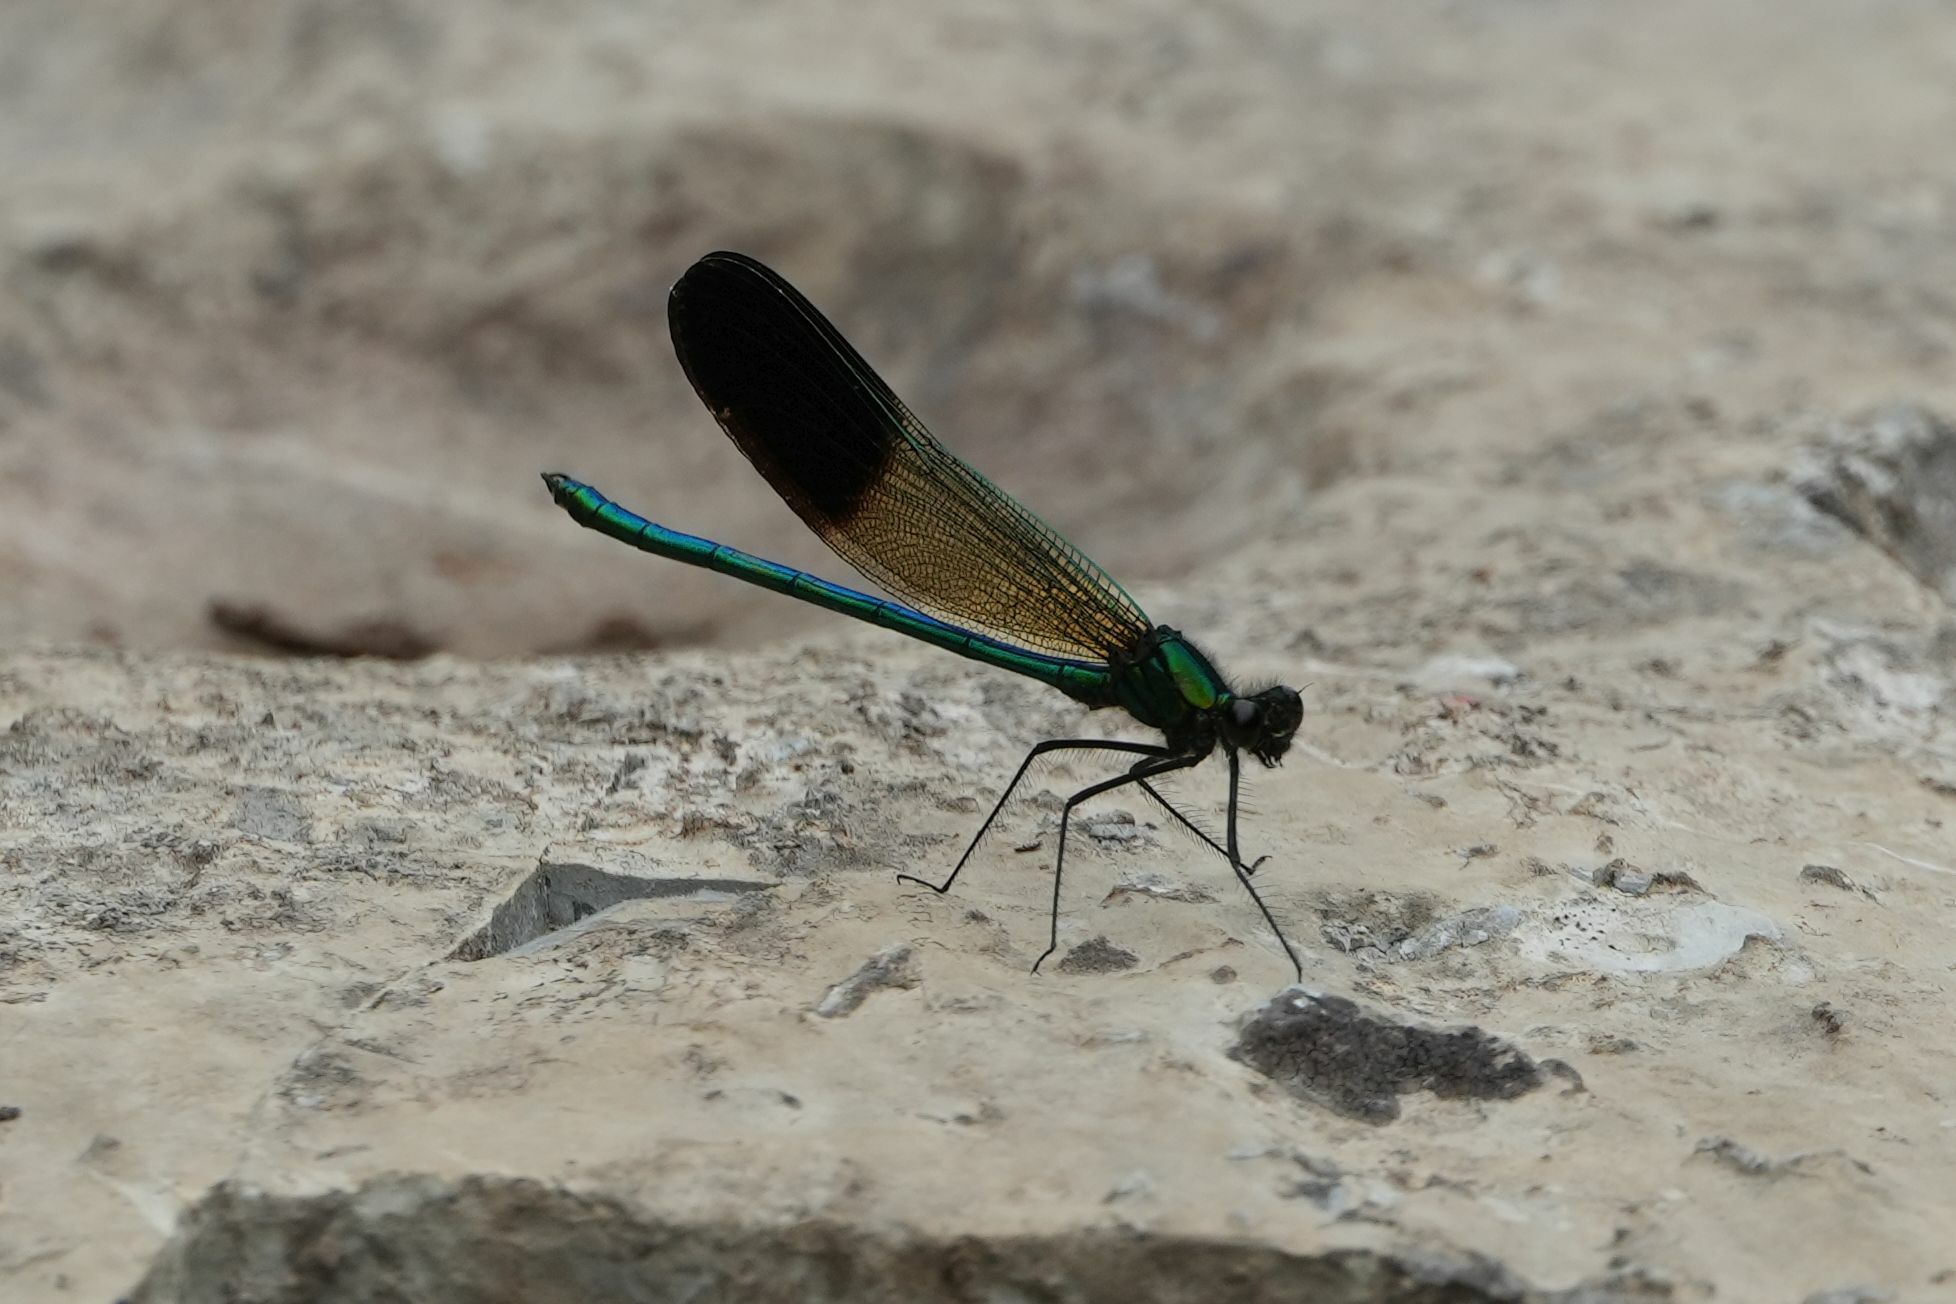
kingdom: Animalia
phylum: Arthropoda
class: Insecta
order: Odonata
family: Calopterygidae
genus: Calopteryx
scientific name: Calopteryx aequabilis
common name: River jewelwing
